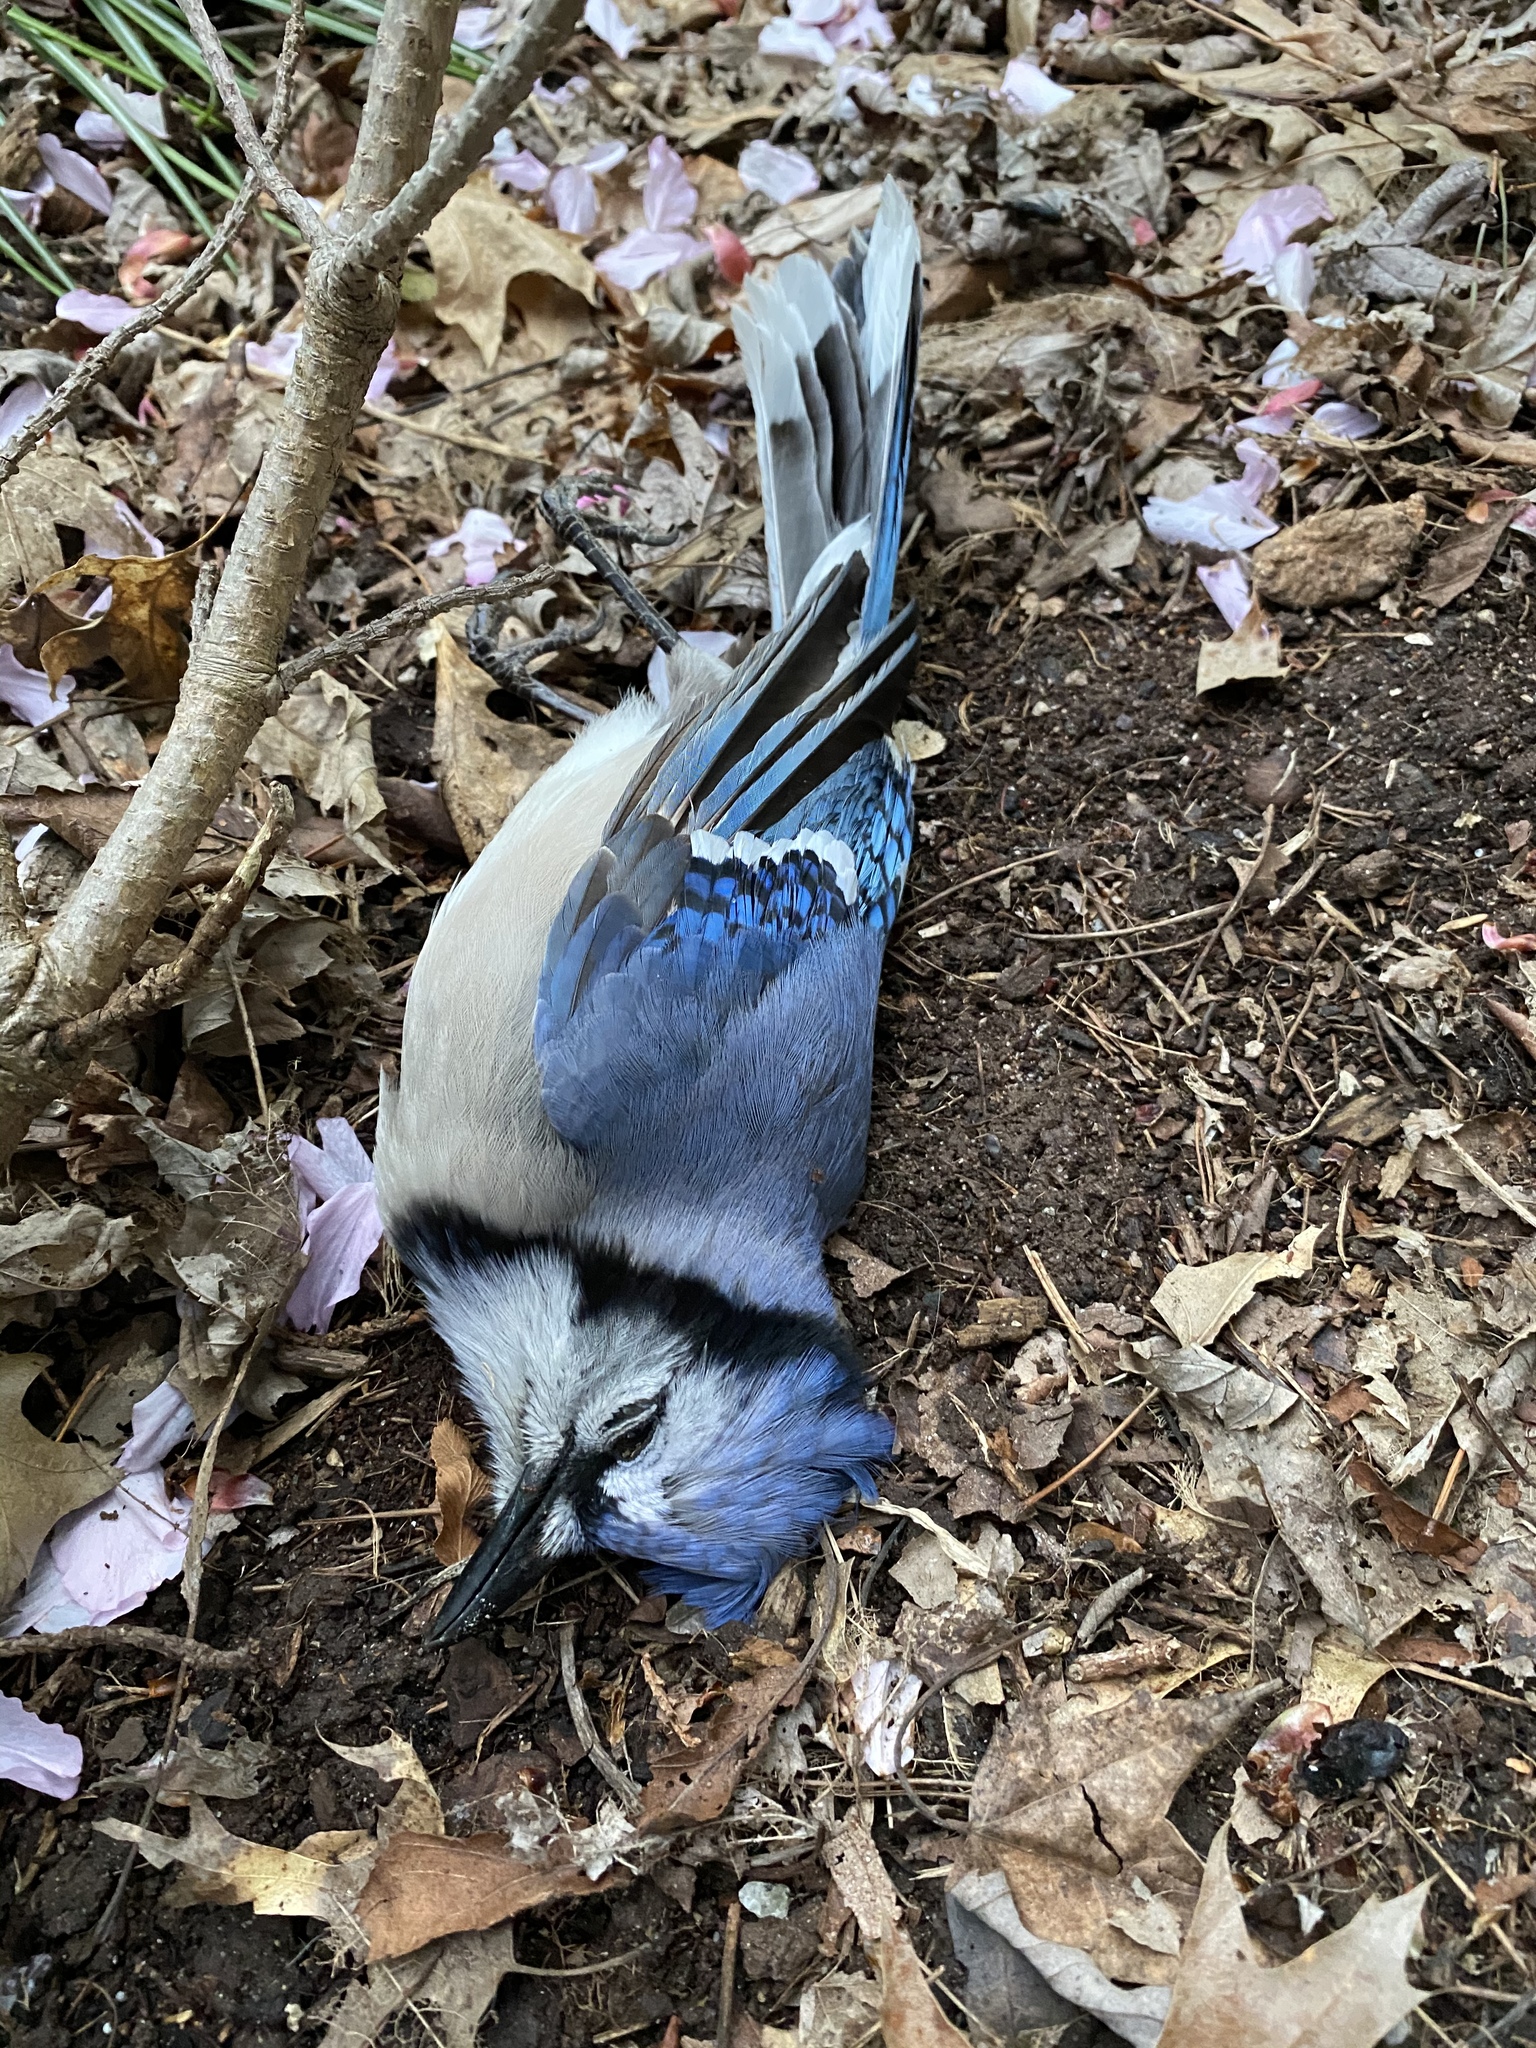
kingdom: Animalia
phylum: Chordata
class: Aves
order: Passeriformes
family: Corvidae
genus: Cyanocitta
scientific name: Cyanocitta cristata
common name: Blue jay
